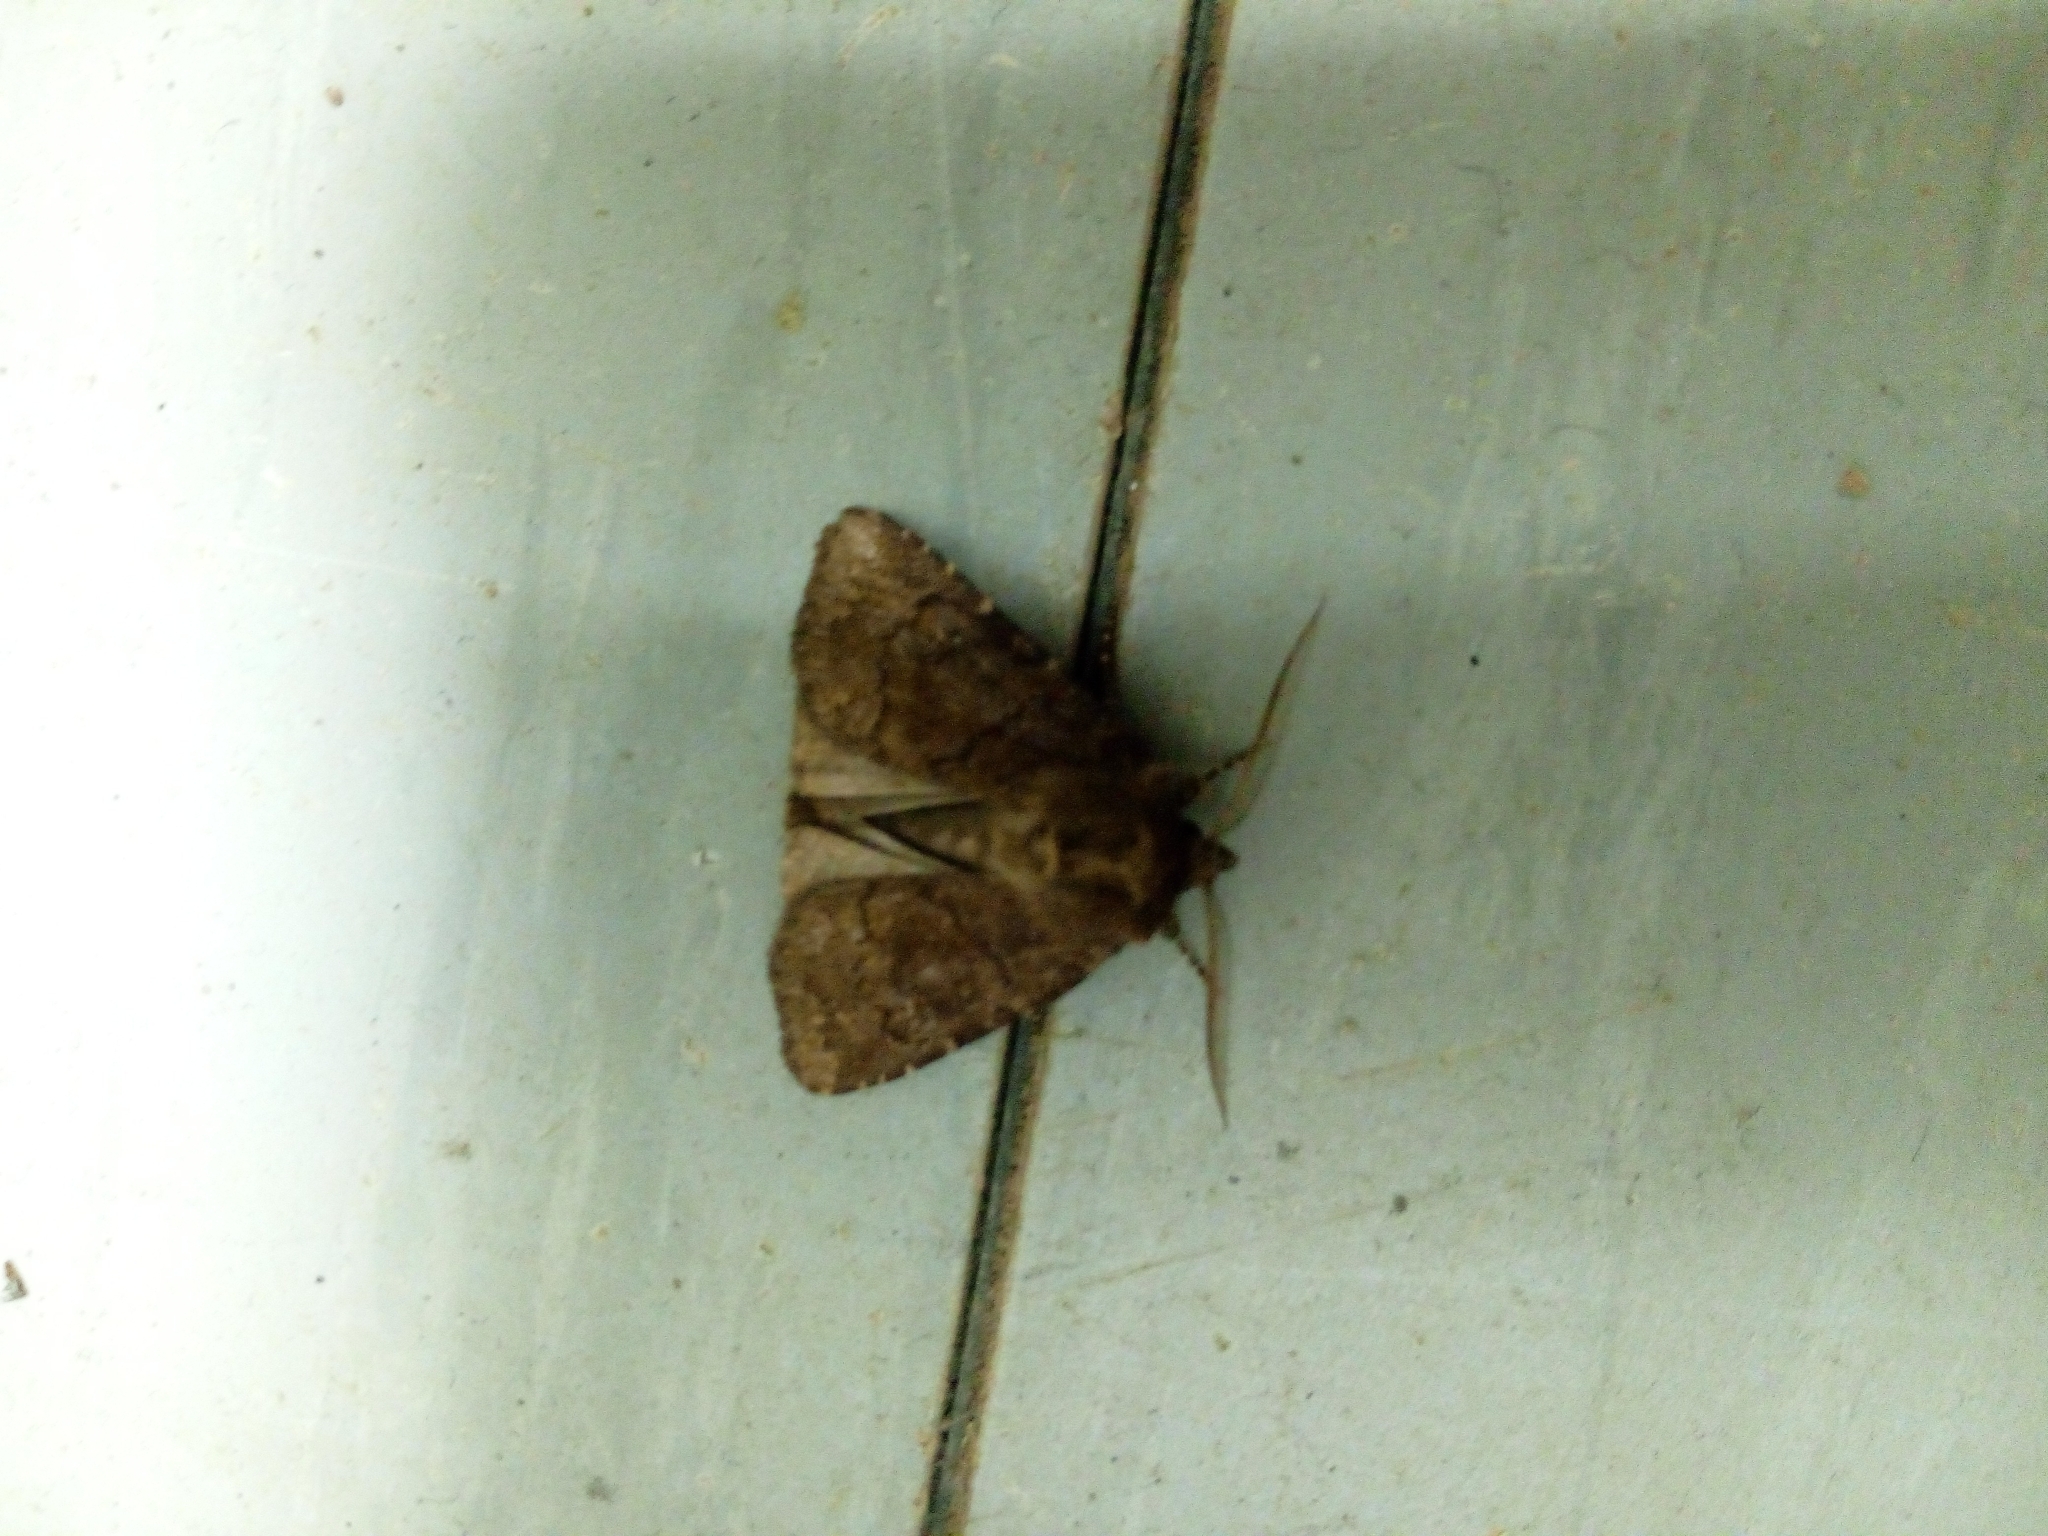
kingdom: Animalia
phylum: Arthropoda
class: Insecta
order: Lepidoptera
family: Noctuidae
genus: Charanyca
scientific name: Charanyca ferruginea
